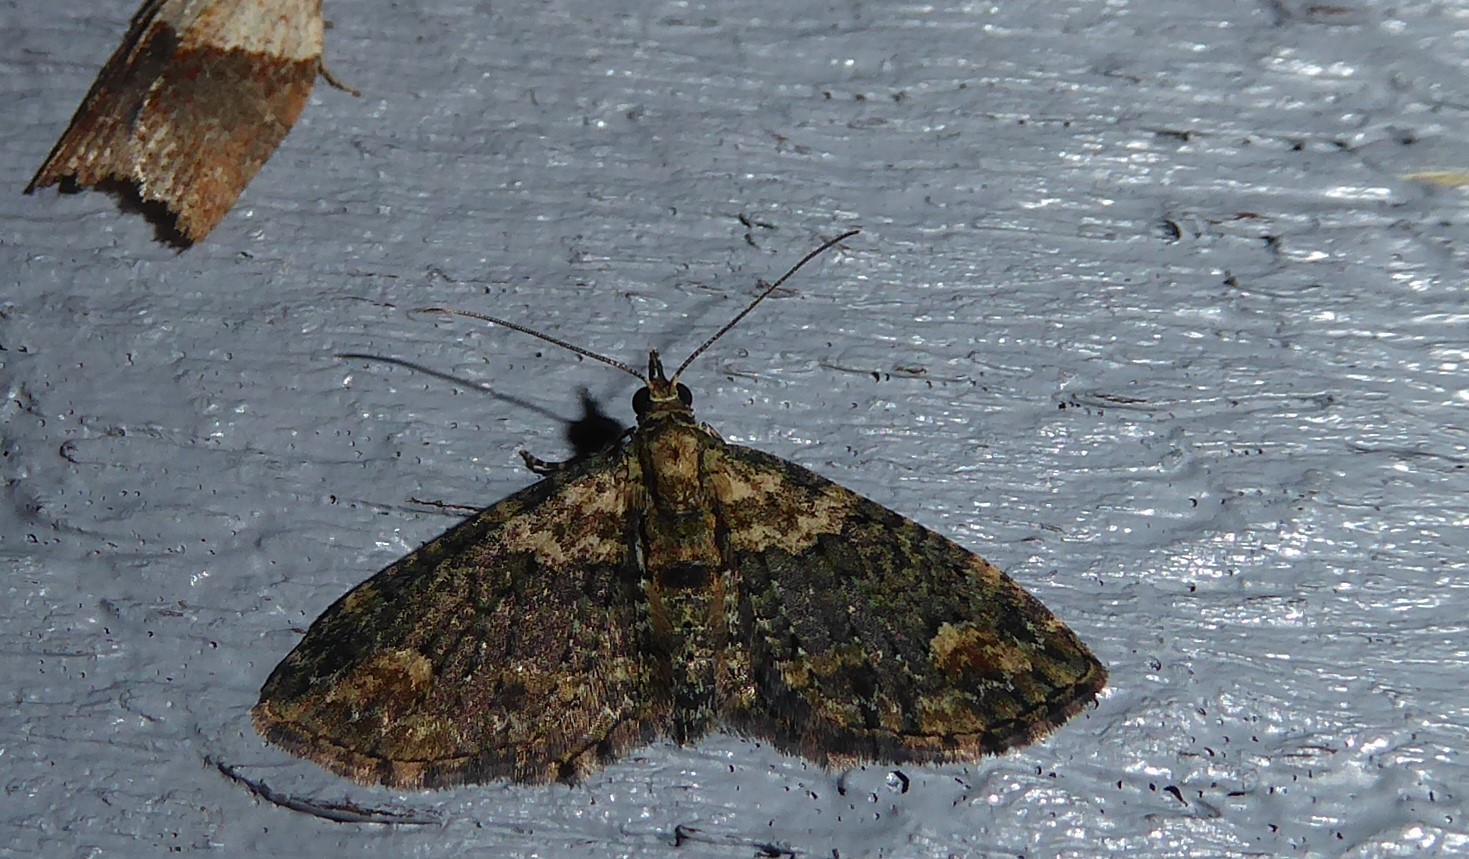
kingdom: Animalia
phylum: Arthropoda
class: Insecta
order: Lepidoptera
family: Geometridae
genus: Pasiphilodes
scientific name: Pasiphilodes testulata
